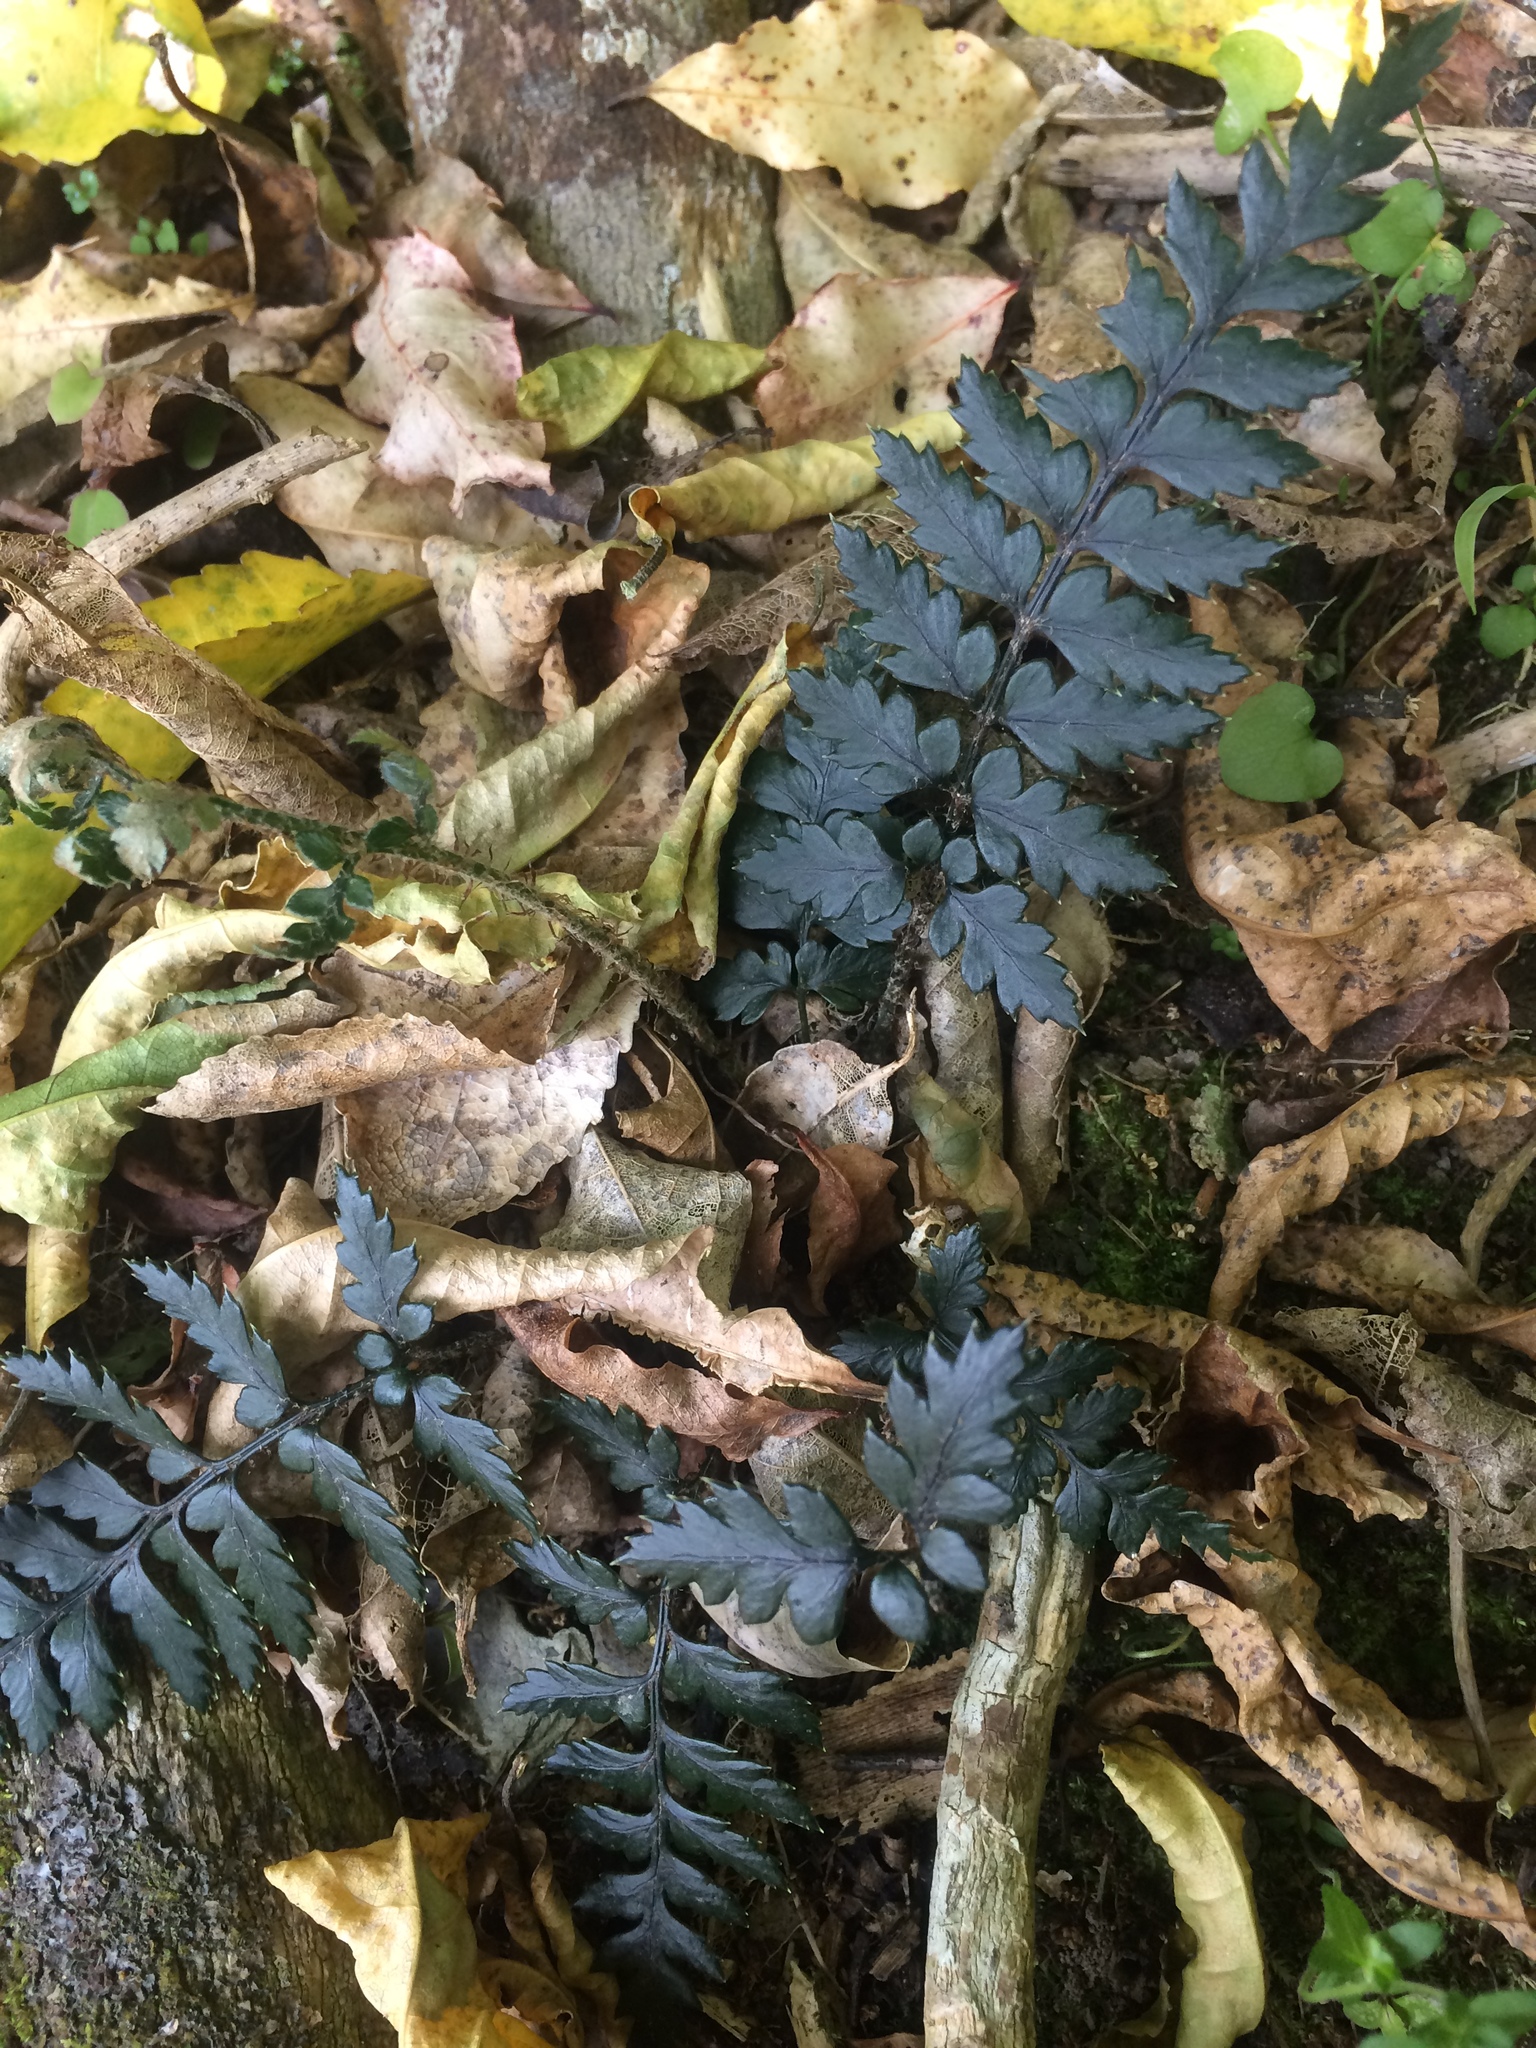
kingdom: Plantae
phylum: Tracheophyta
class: Polypodiopsida
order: Polypodiales
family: Dryopteridaceae
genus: Polystichum
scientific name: Polystichum neozelandicum
